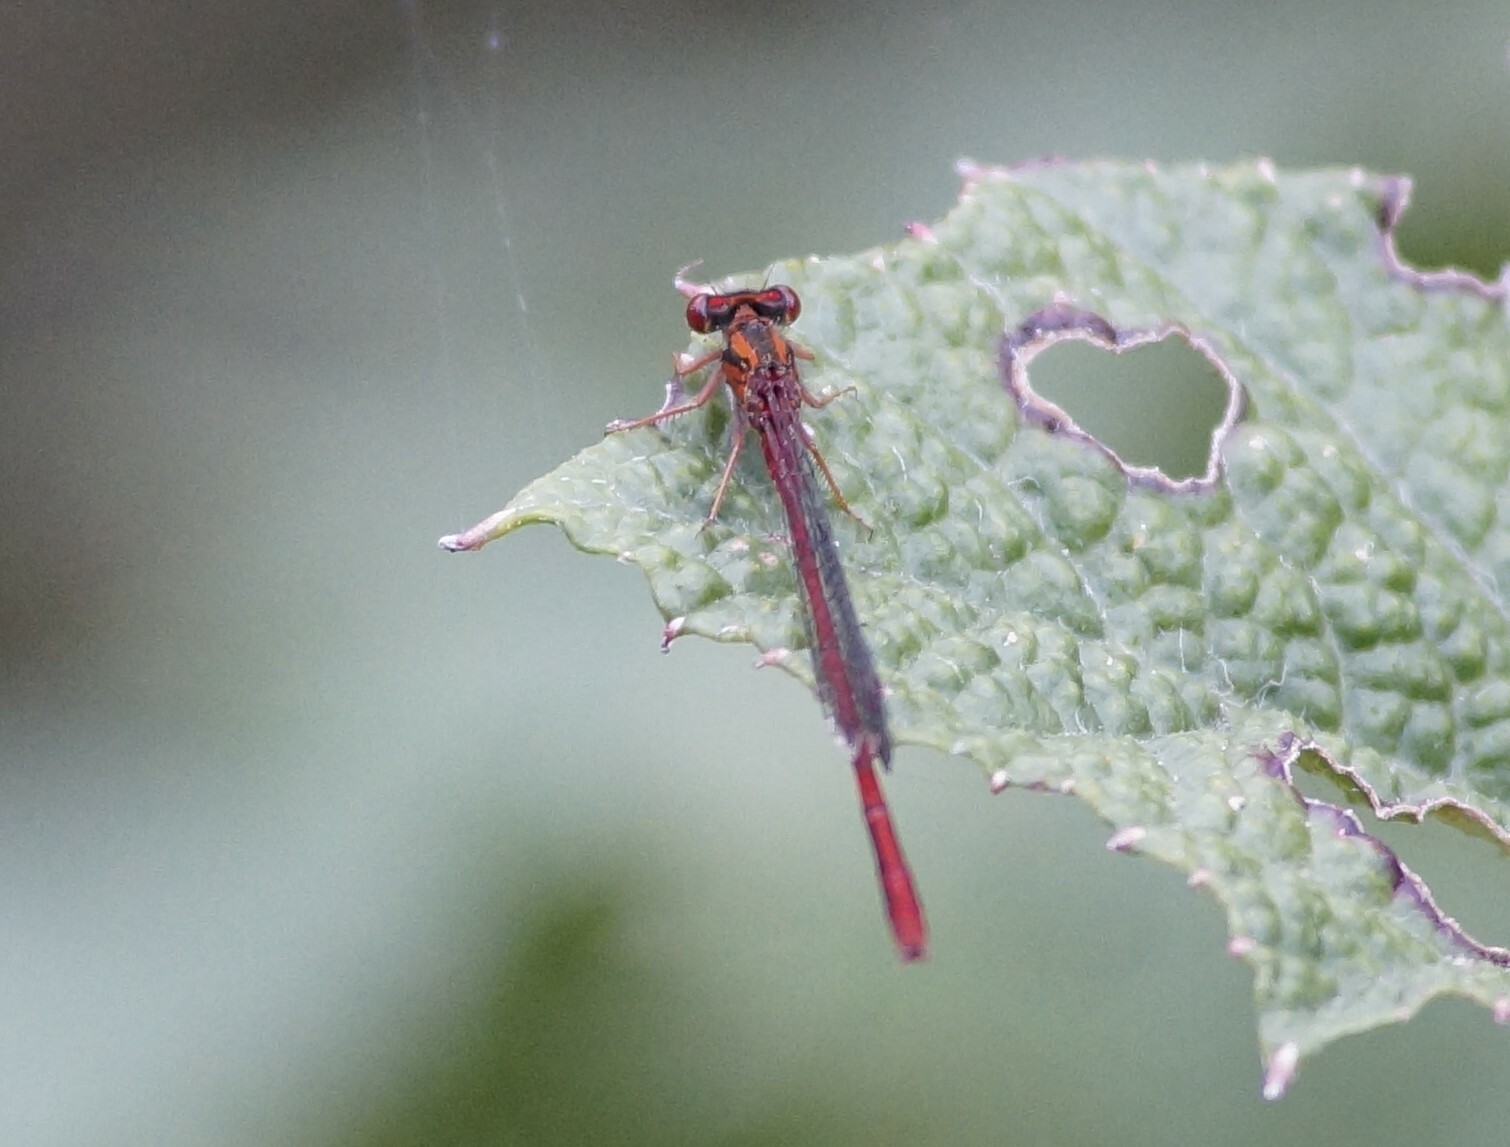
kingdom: Animalia
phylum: Arthropoda
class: Insecta
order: Odonata
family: Coenagrionidae
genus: Xanthocnemis
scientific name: Xanthocnemis zealandica
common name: Common redcoat damselfly
